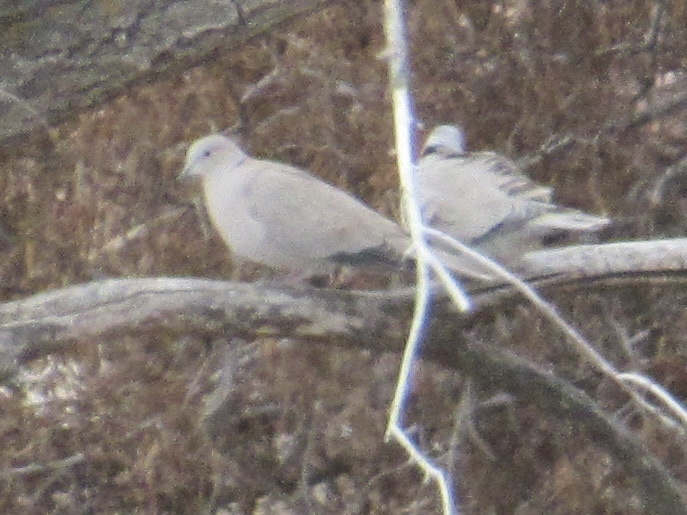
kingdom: Animalia
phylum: Chordata
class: Aves
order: Columbiformes
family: Columbidae
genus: Streptopelia
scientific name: Streptopelia decaocto
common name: Eurasian collared dove
